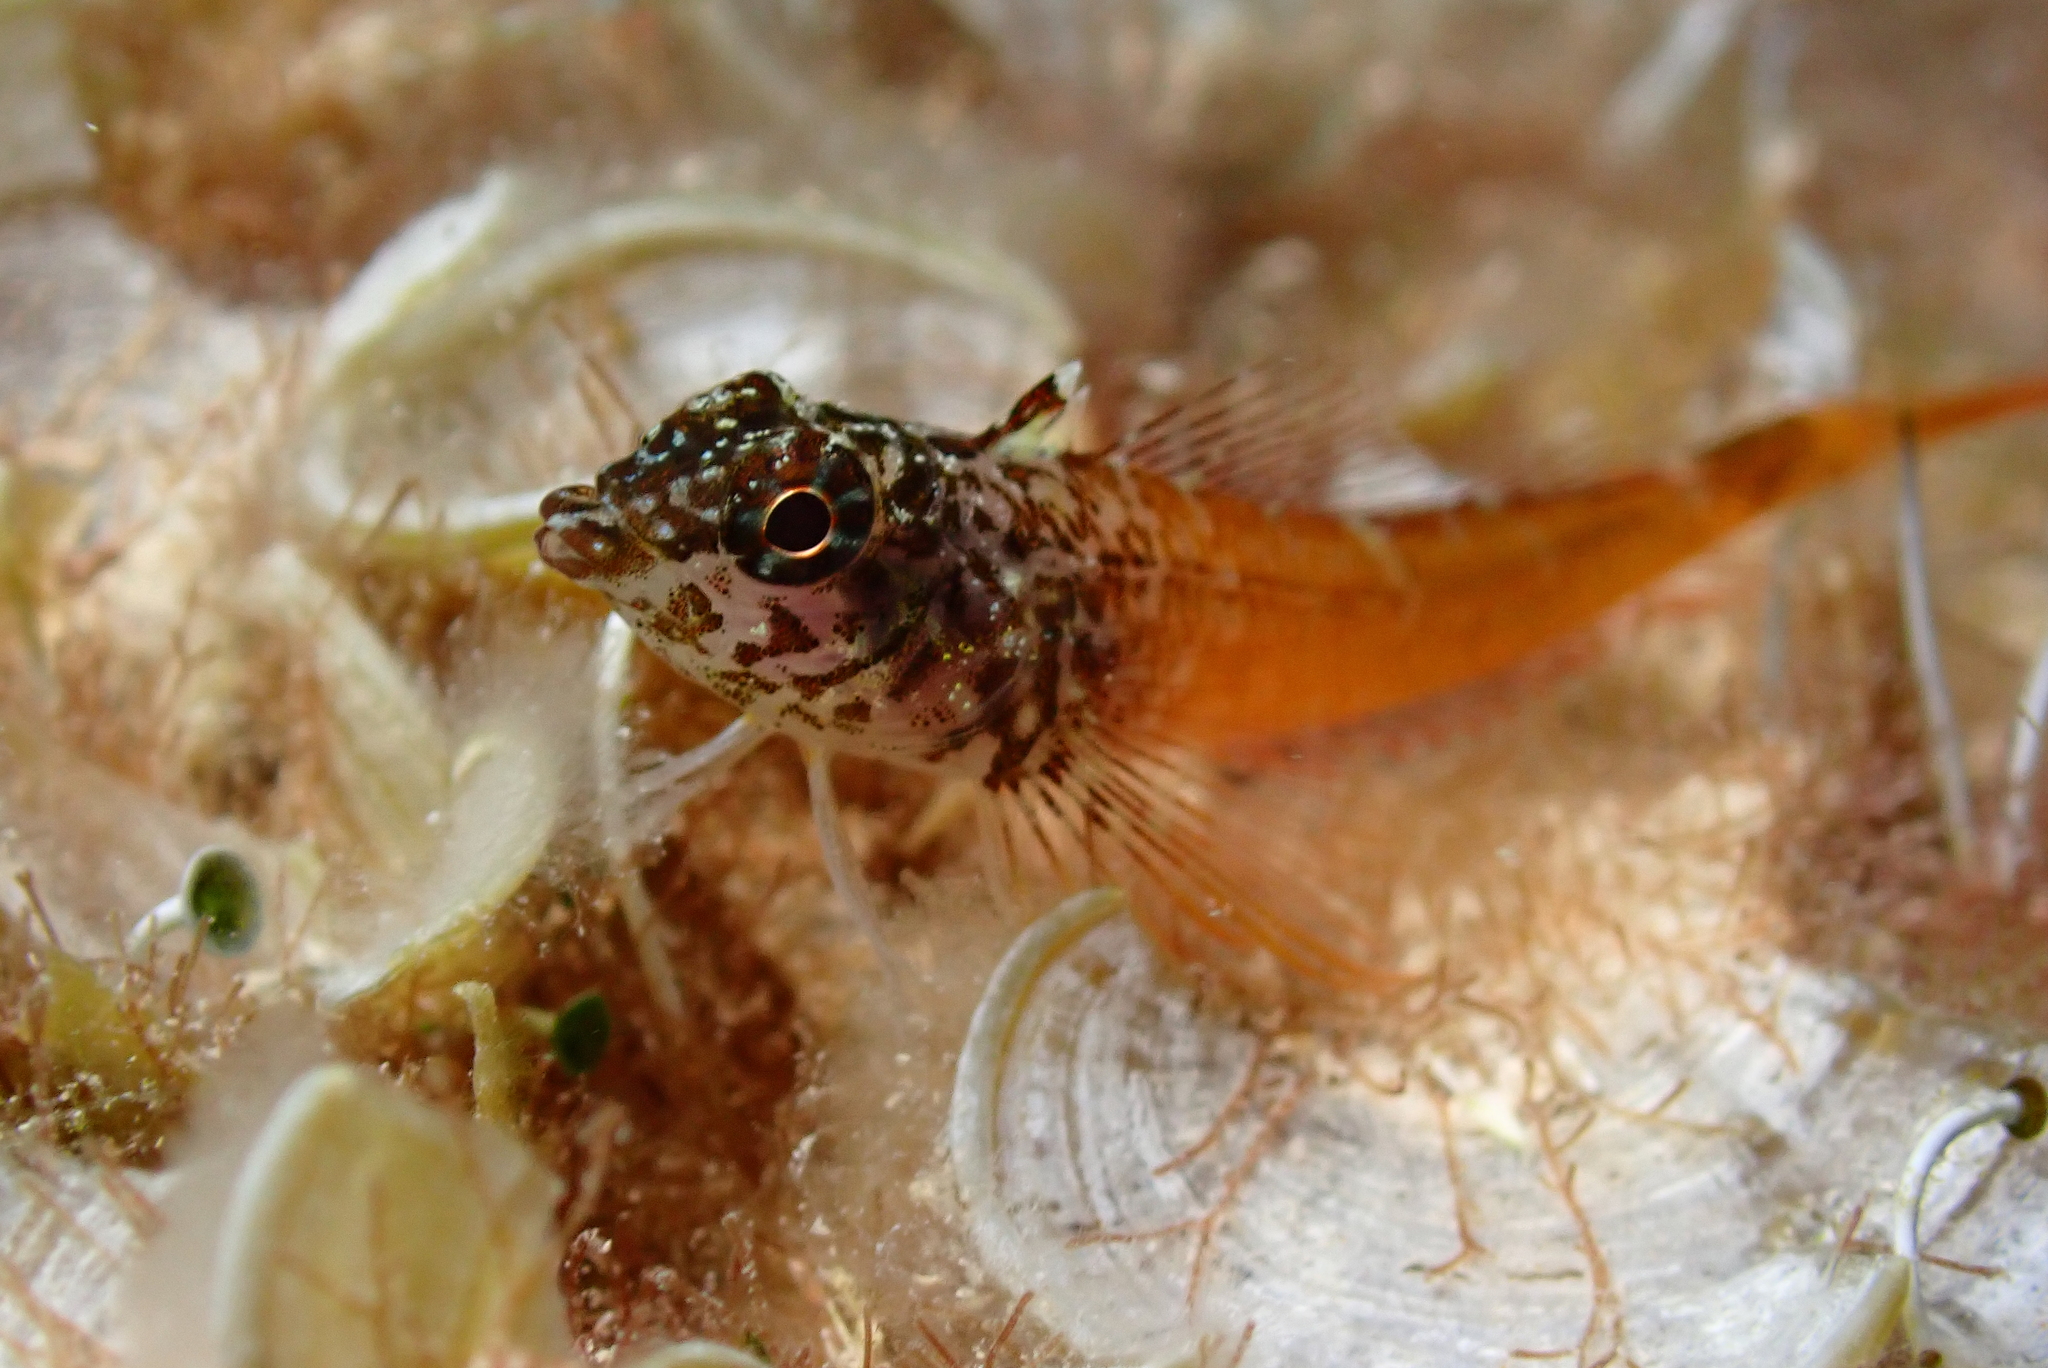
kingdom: Animalia
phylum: Chordata
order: Perciformes
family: Tripterygiidae
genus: Tripterygion
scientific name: Tripterygion melanurum
